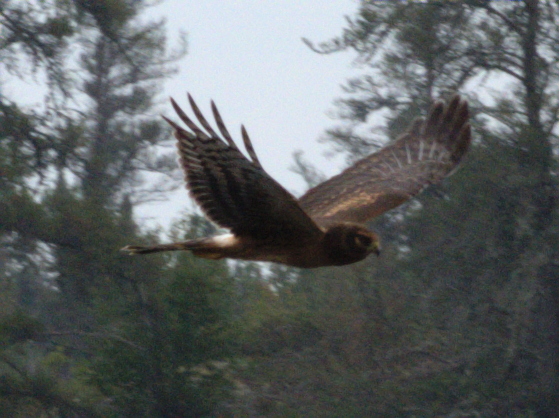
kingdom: Animalia
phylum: Chordata
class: Aves
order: Accipitriformes
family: Accipitridae
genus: Circus
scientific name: Circus cyaneus
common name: Hen harrier
